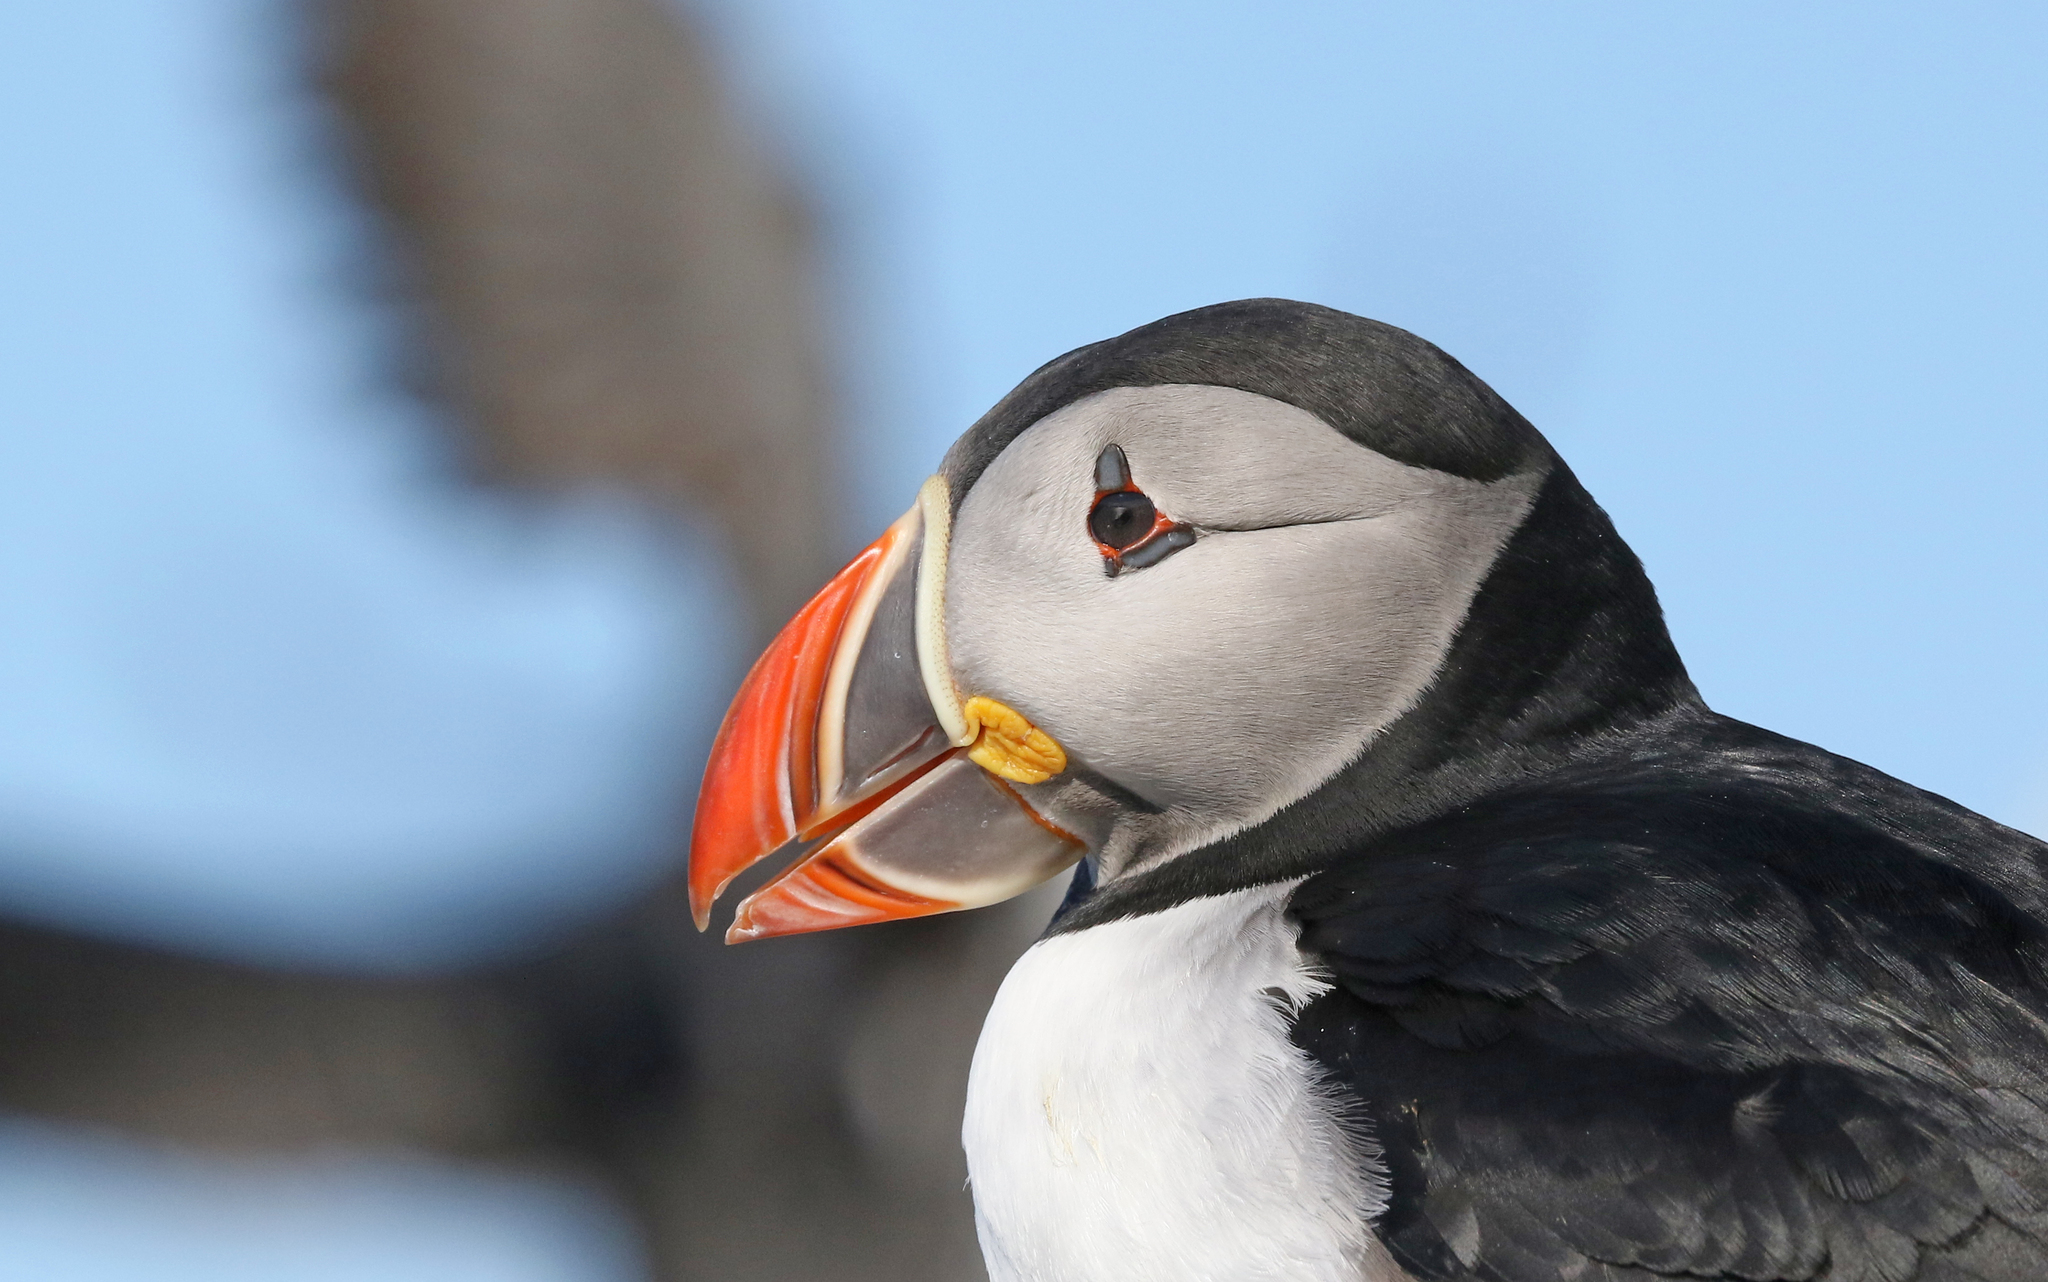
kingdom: Animalia
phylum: Chordata
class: Aves
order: Charadriiformes
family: Alcidae
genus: Fratercula
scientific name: Fratercula arctica
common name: Atlantic puffin
